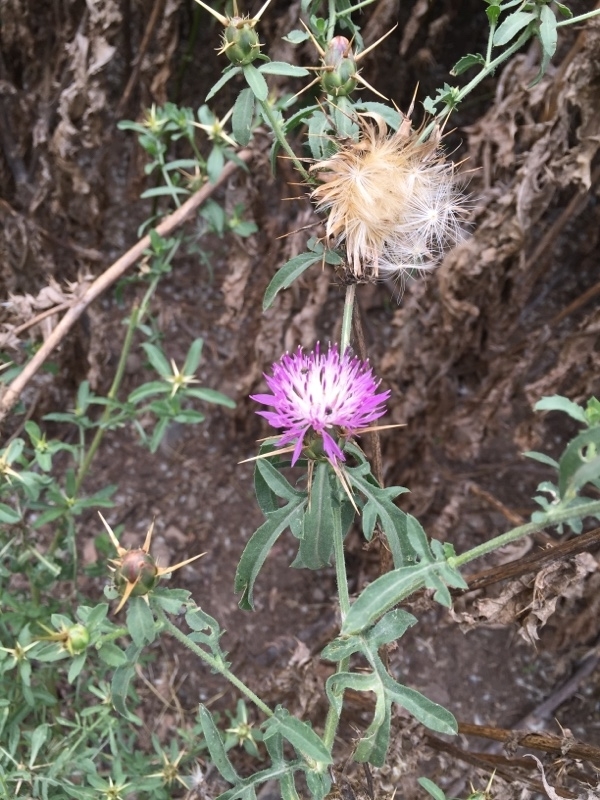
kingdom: Plantae
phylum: Tracheophyta
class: Magnoliopsida
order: Asterales
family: Asteraceae
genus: Centaurea
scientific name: Centaurea iberica
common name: Iberian knapweed
